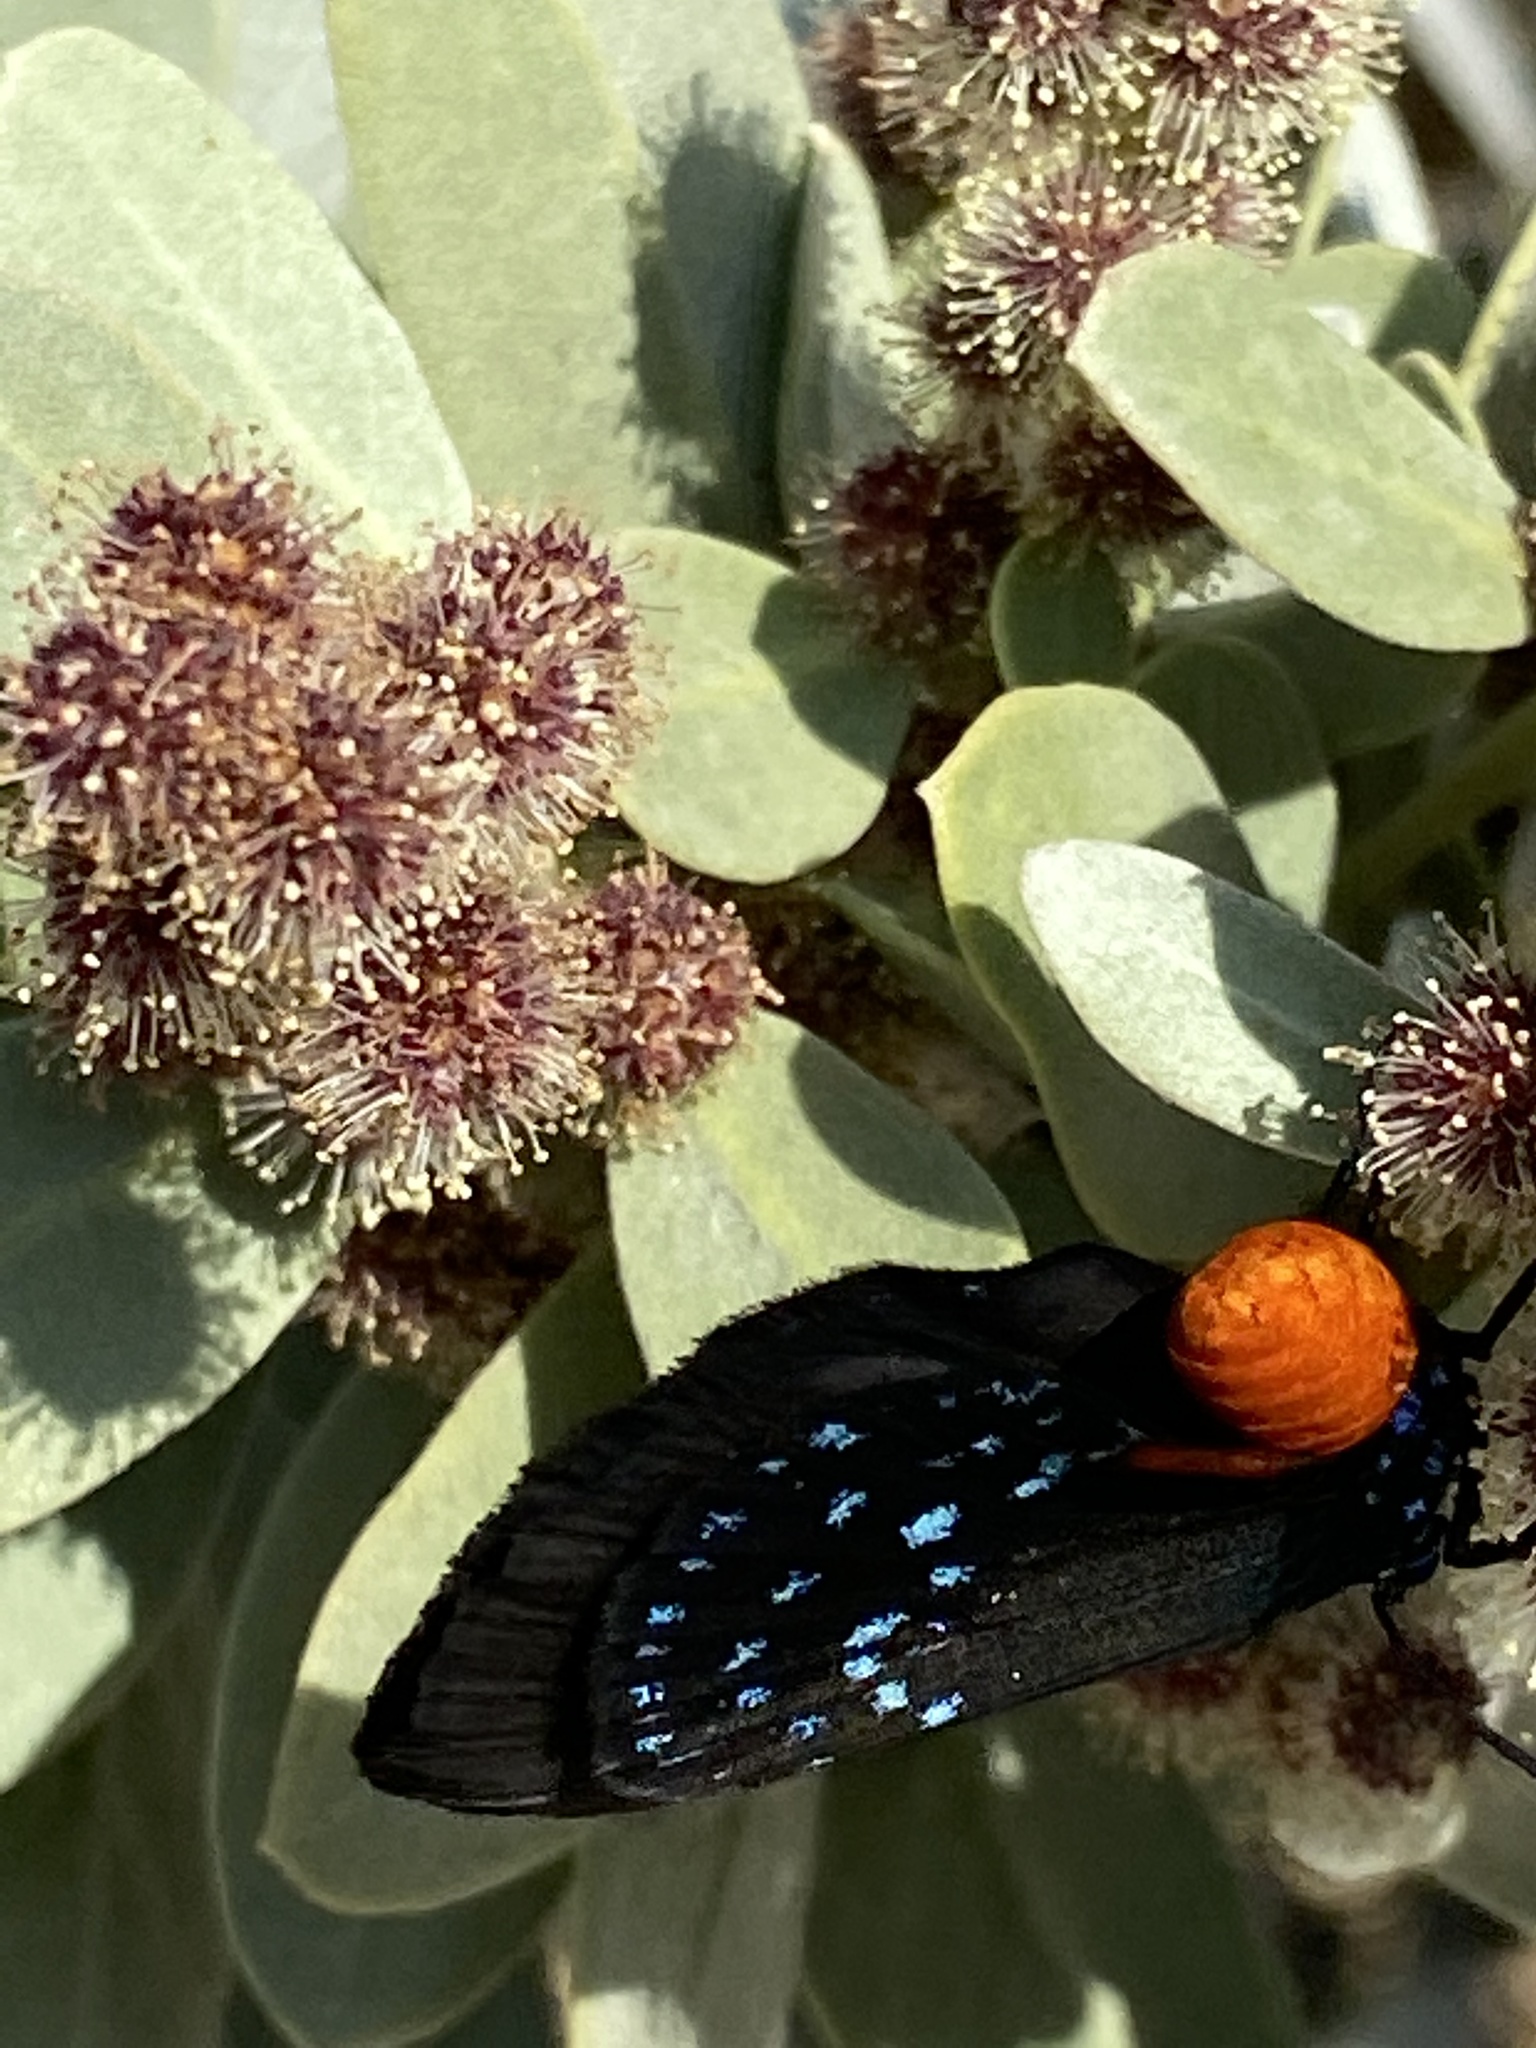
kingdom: Animalia
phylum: Arthropoda
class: Insecta
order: Lepidoptera
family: Lycaenidae
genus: Eumaeus
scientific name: Eumaeus atala
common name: Atala
